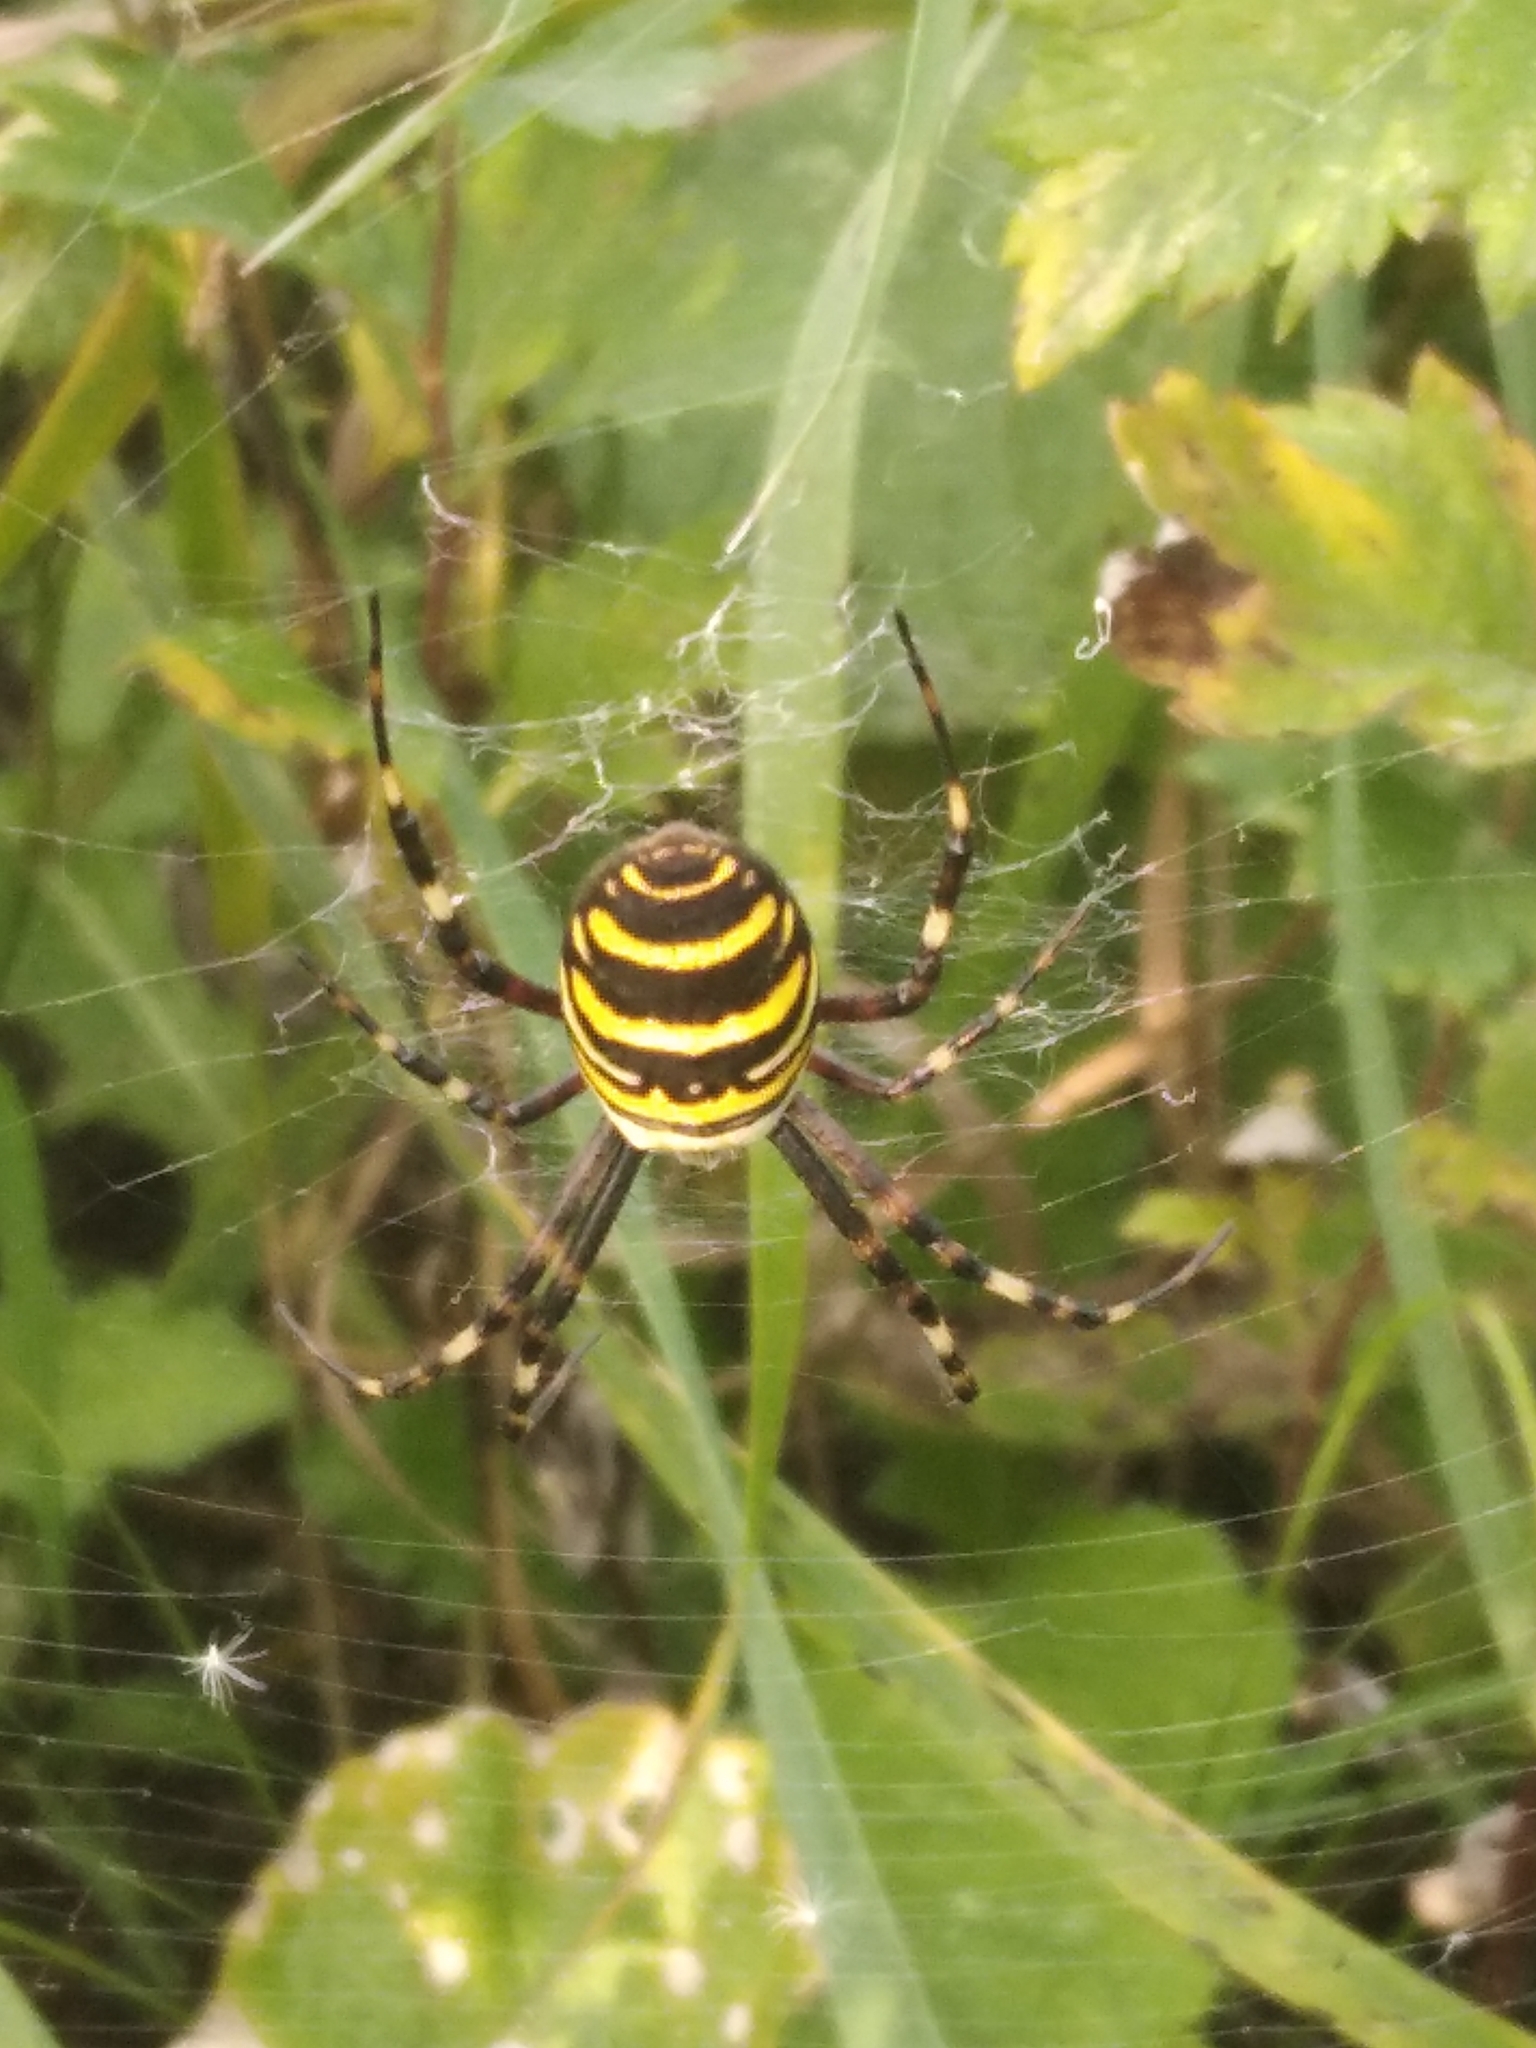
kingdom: Animalia
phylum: Arthropoda
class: Arachnida
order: Araneae
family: Araneidae
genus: Argiope
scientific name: Argiope bruennichi
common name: Wasp spider
